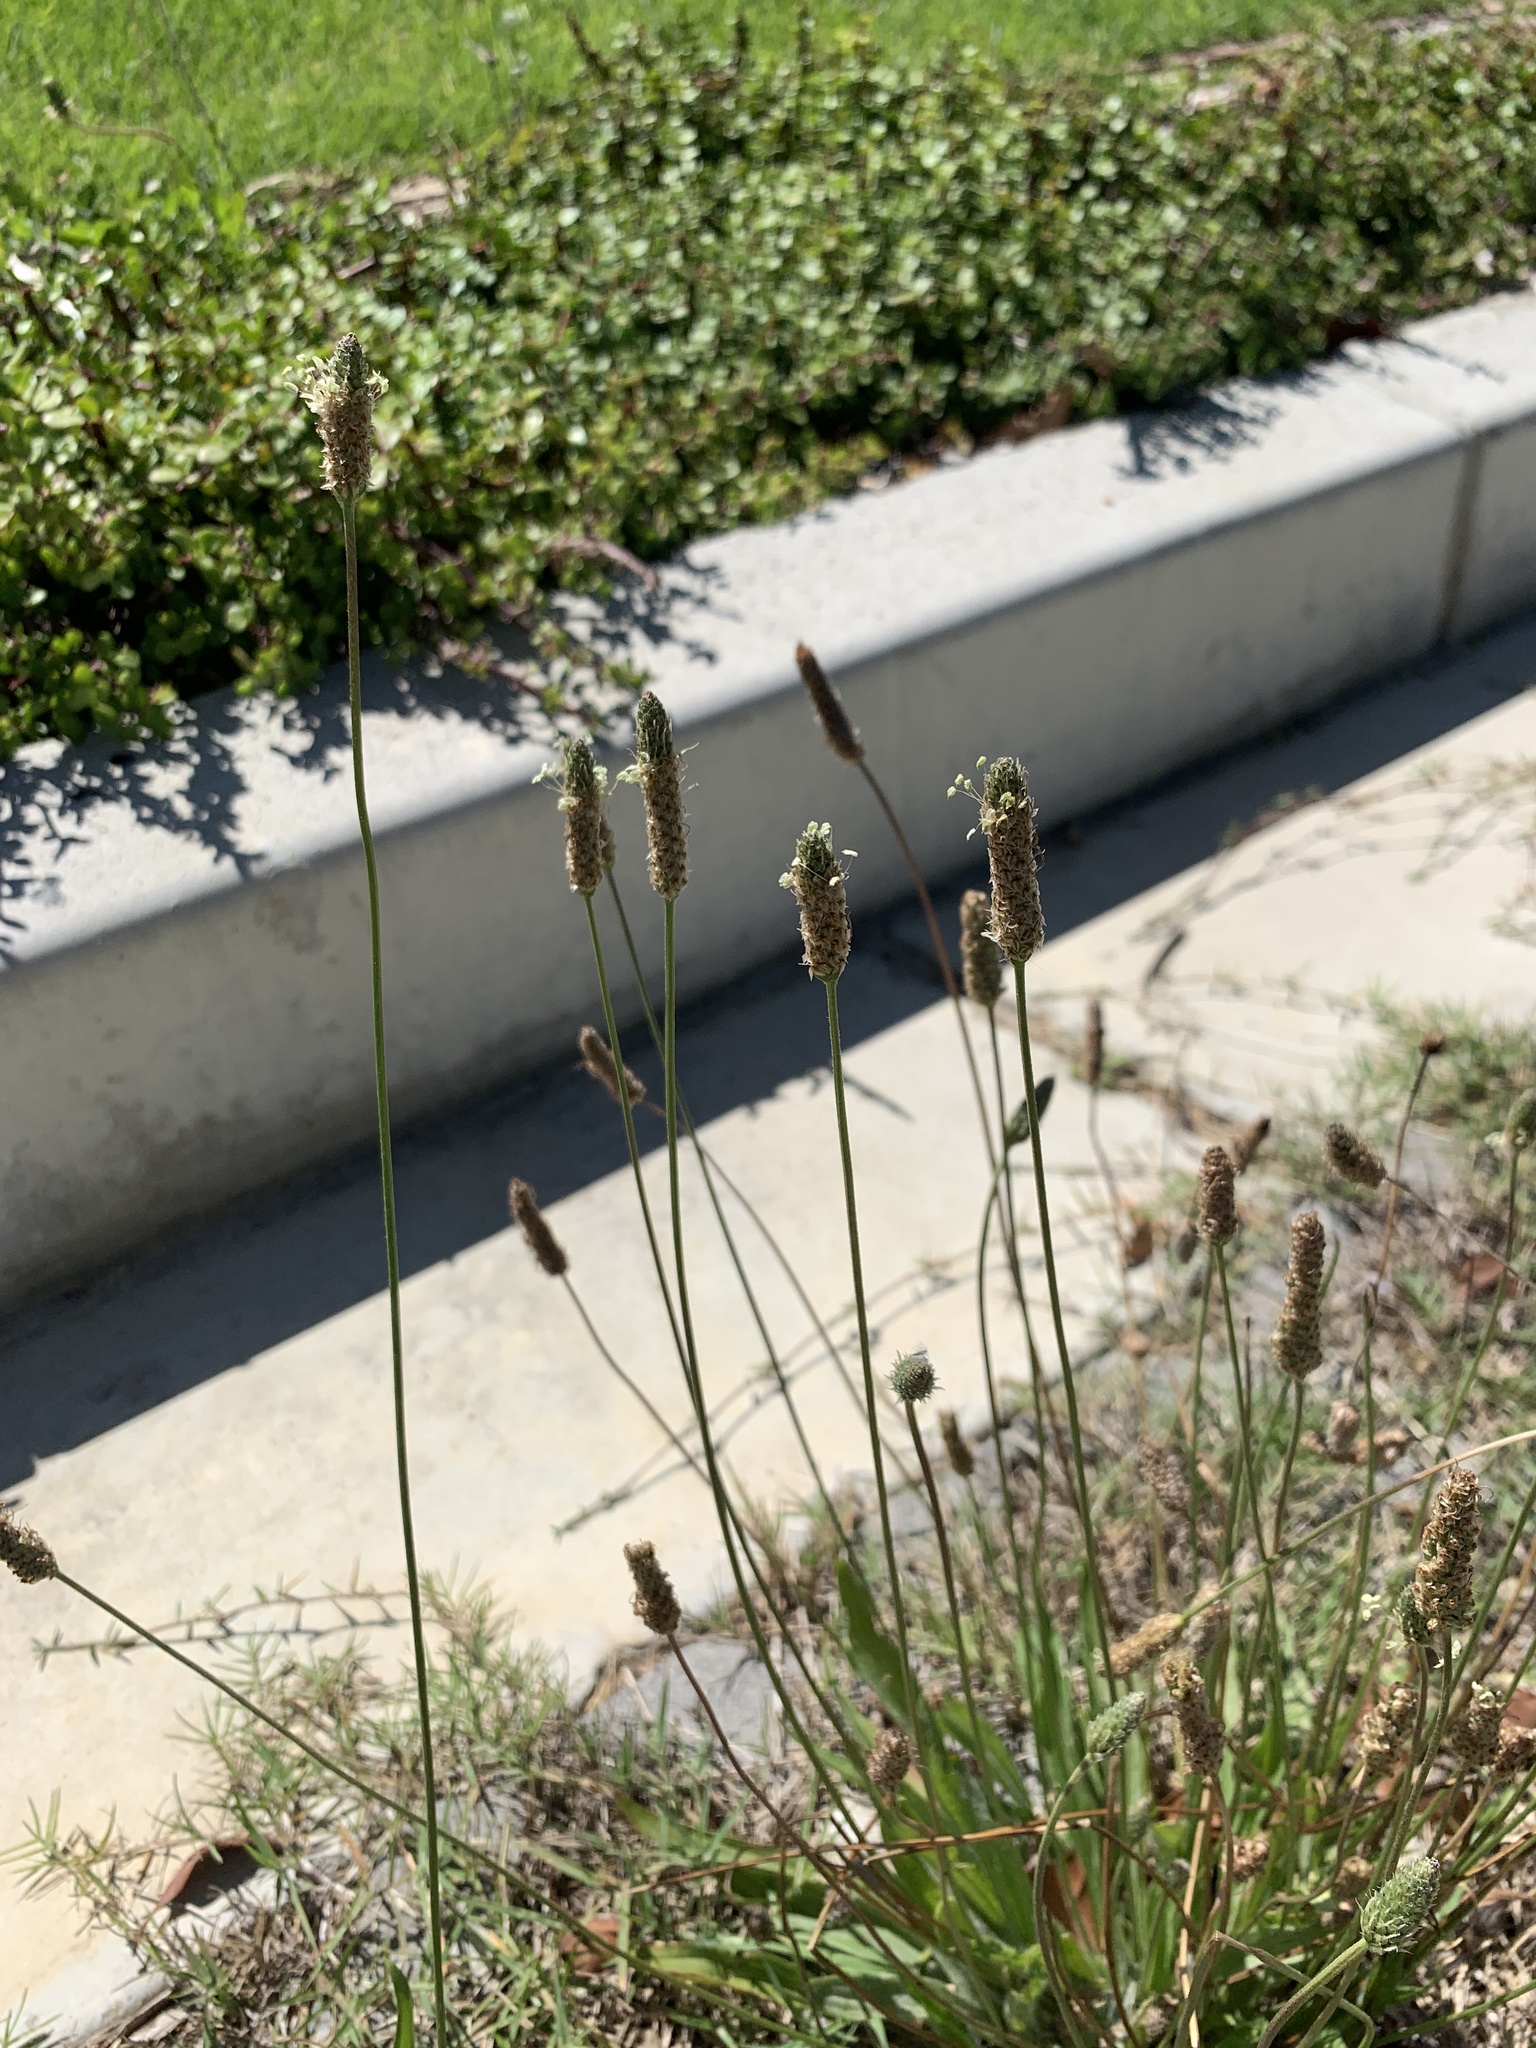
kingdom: Plantae
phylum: Tracheophyta
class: Magnoliopsida
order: Lamiales
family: Plantaginaceae
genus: Plantago
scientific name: Plantago lanceolata
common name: Ribwort plantain
